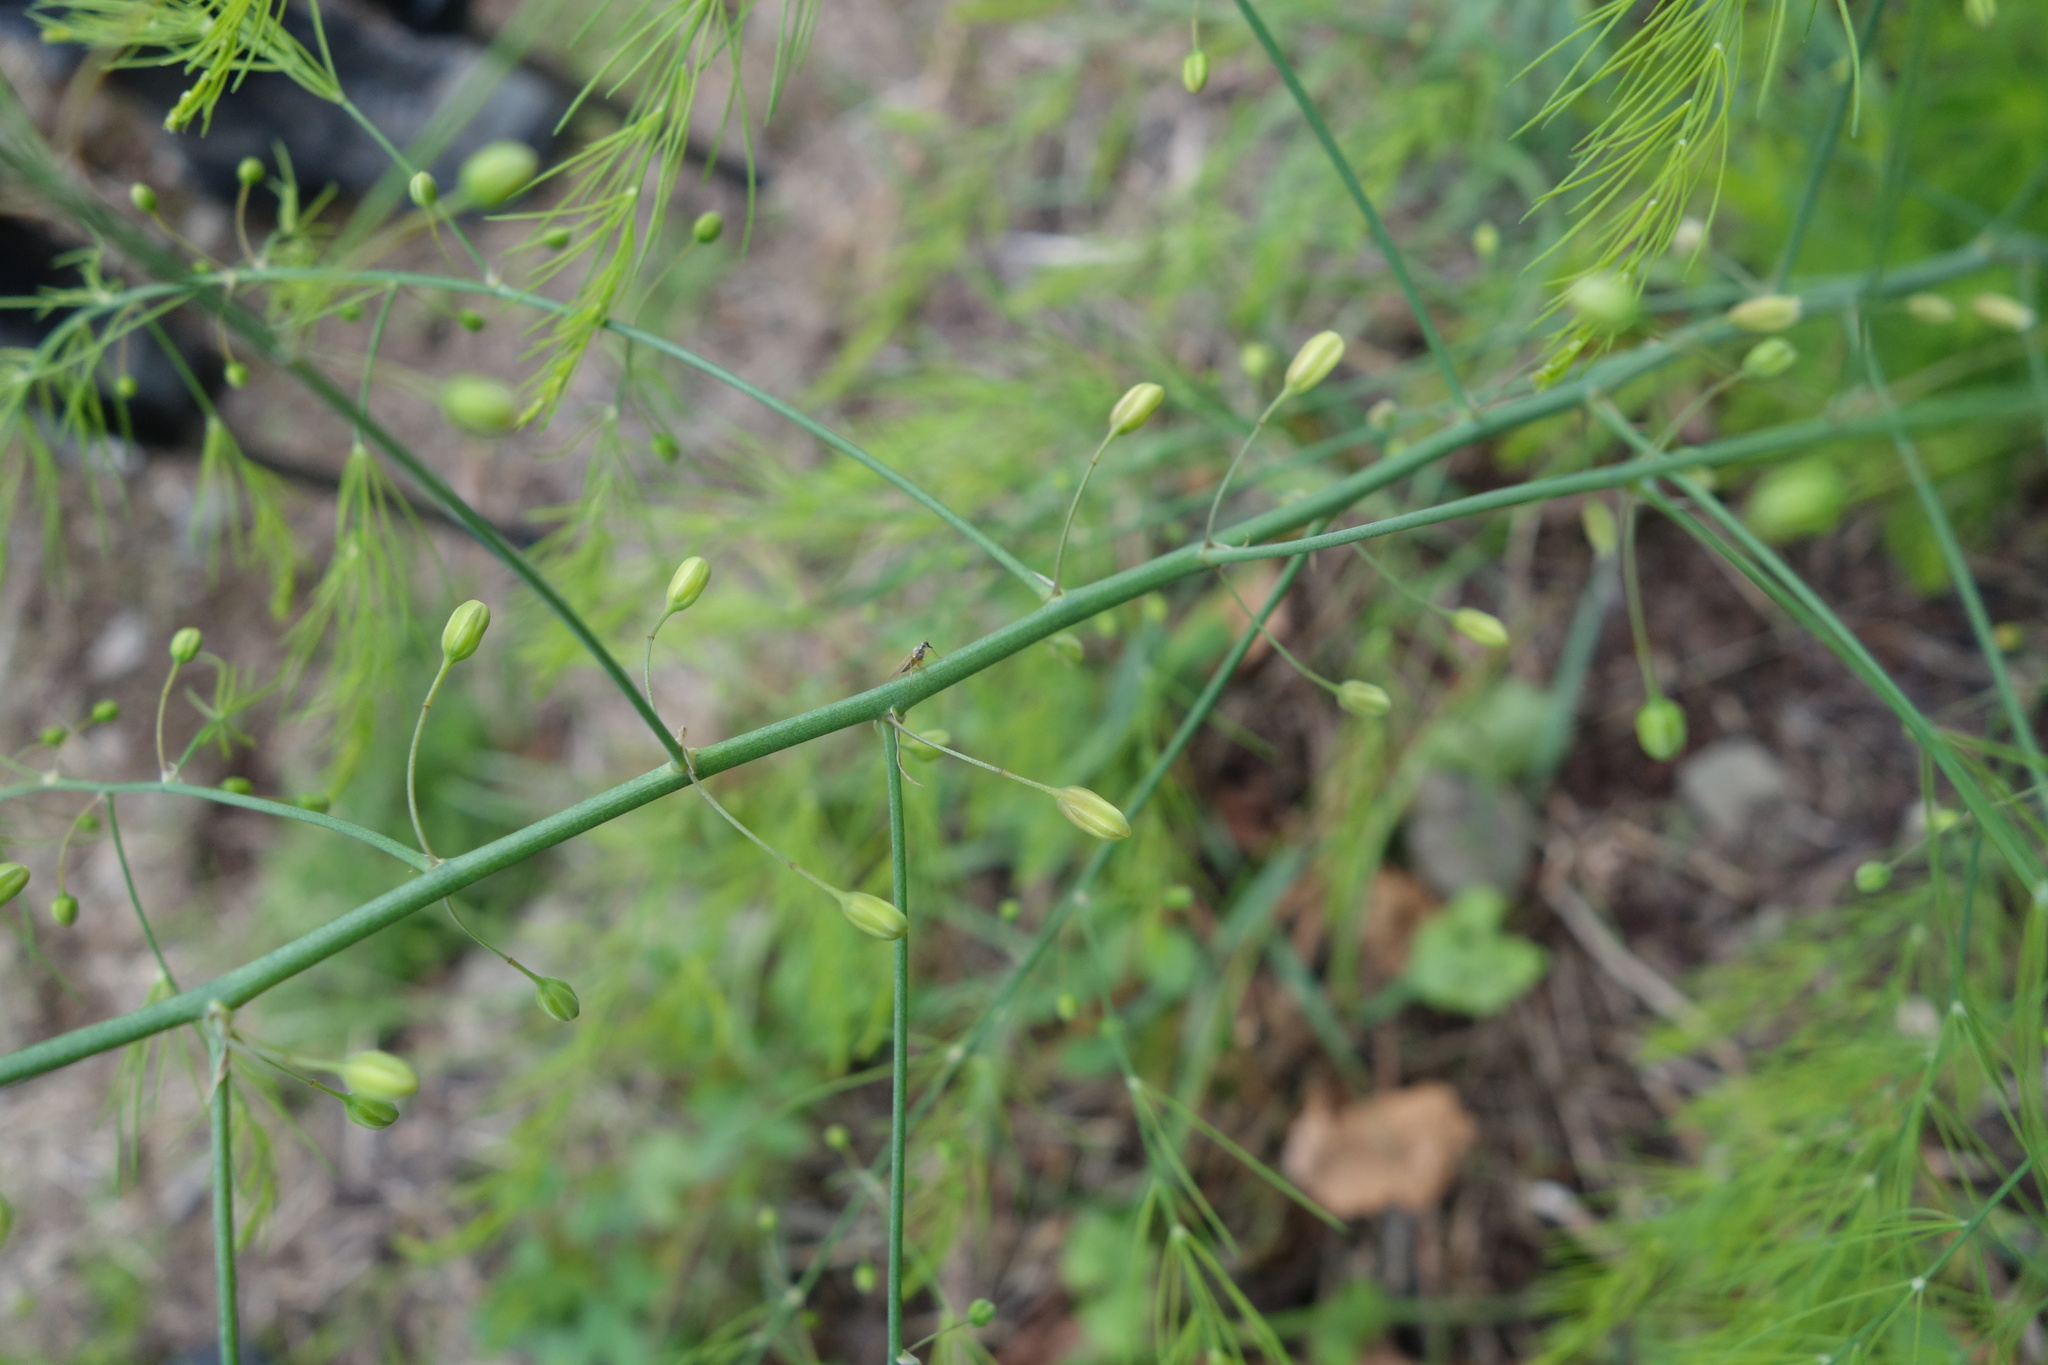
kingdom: Plantae
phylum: Tracheophyta
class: Liliopsida
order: Asparagales
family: Asparagaceae
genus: Asparagus
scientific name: Asparagus officinalis
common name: Garden asparagus
